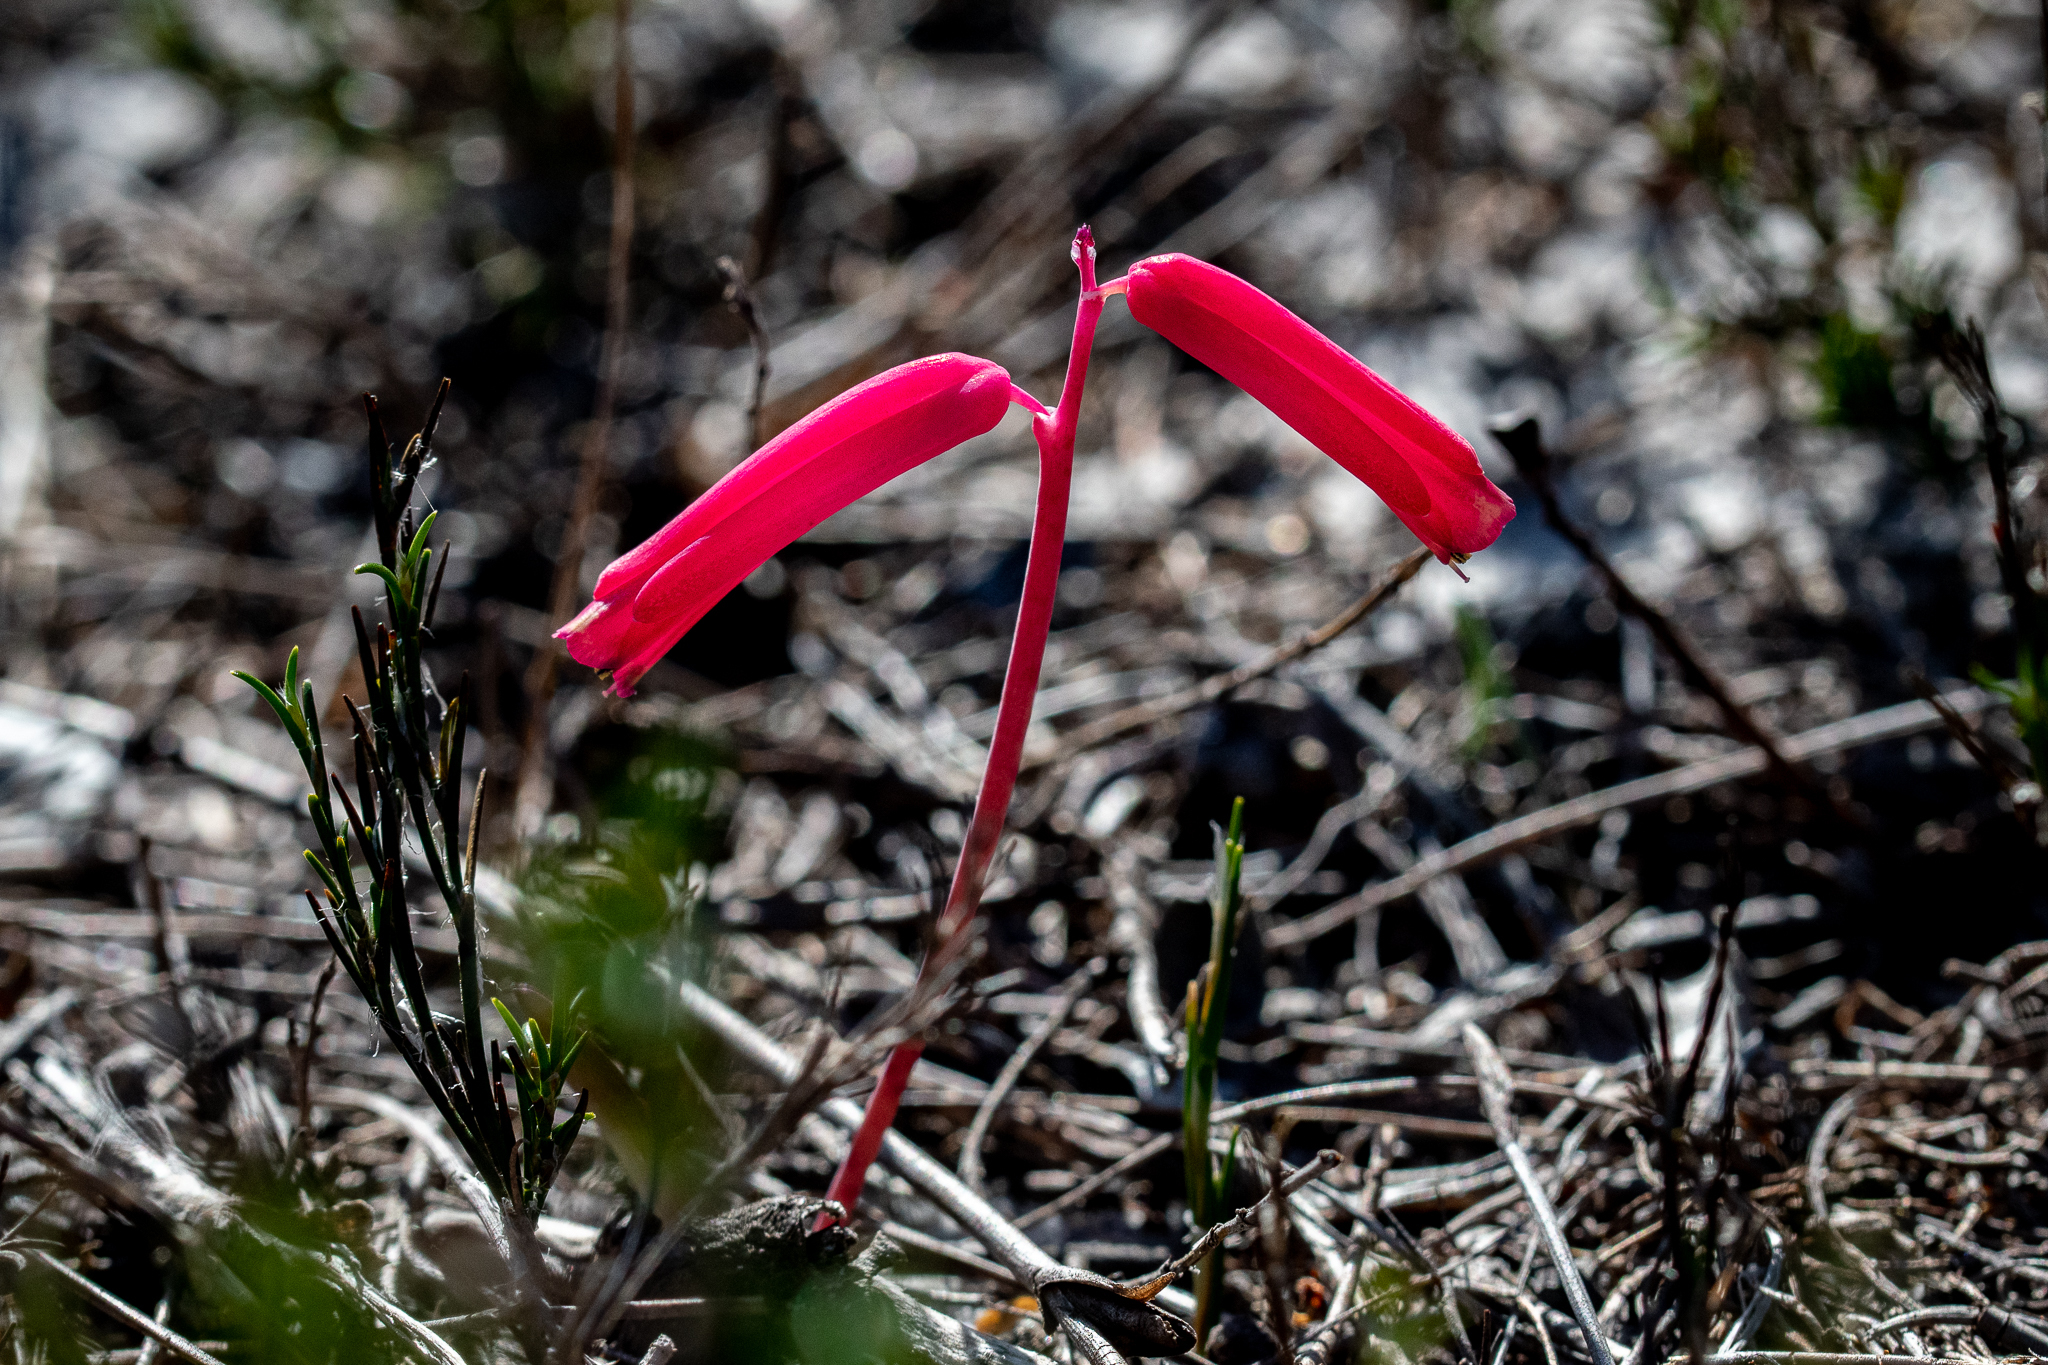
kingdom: Plantae
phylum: Tracheophyta
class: Liliopsida
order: Asparagales
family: Asparagaceae
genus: Lachenalia
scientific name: Lachenalia punctata
